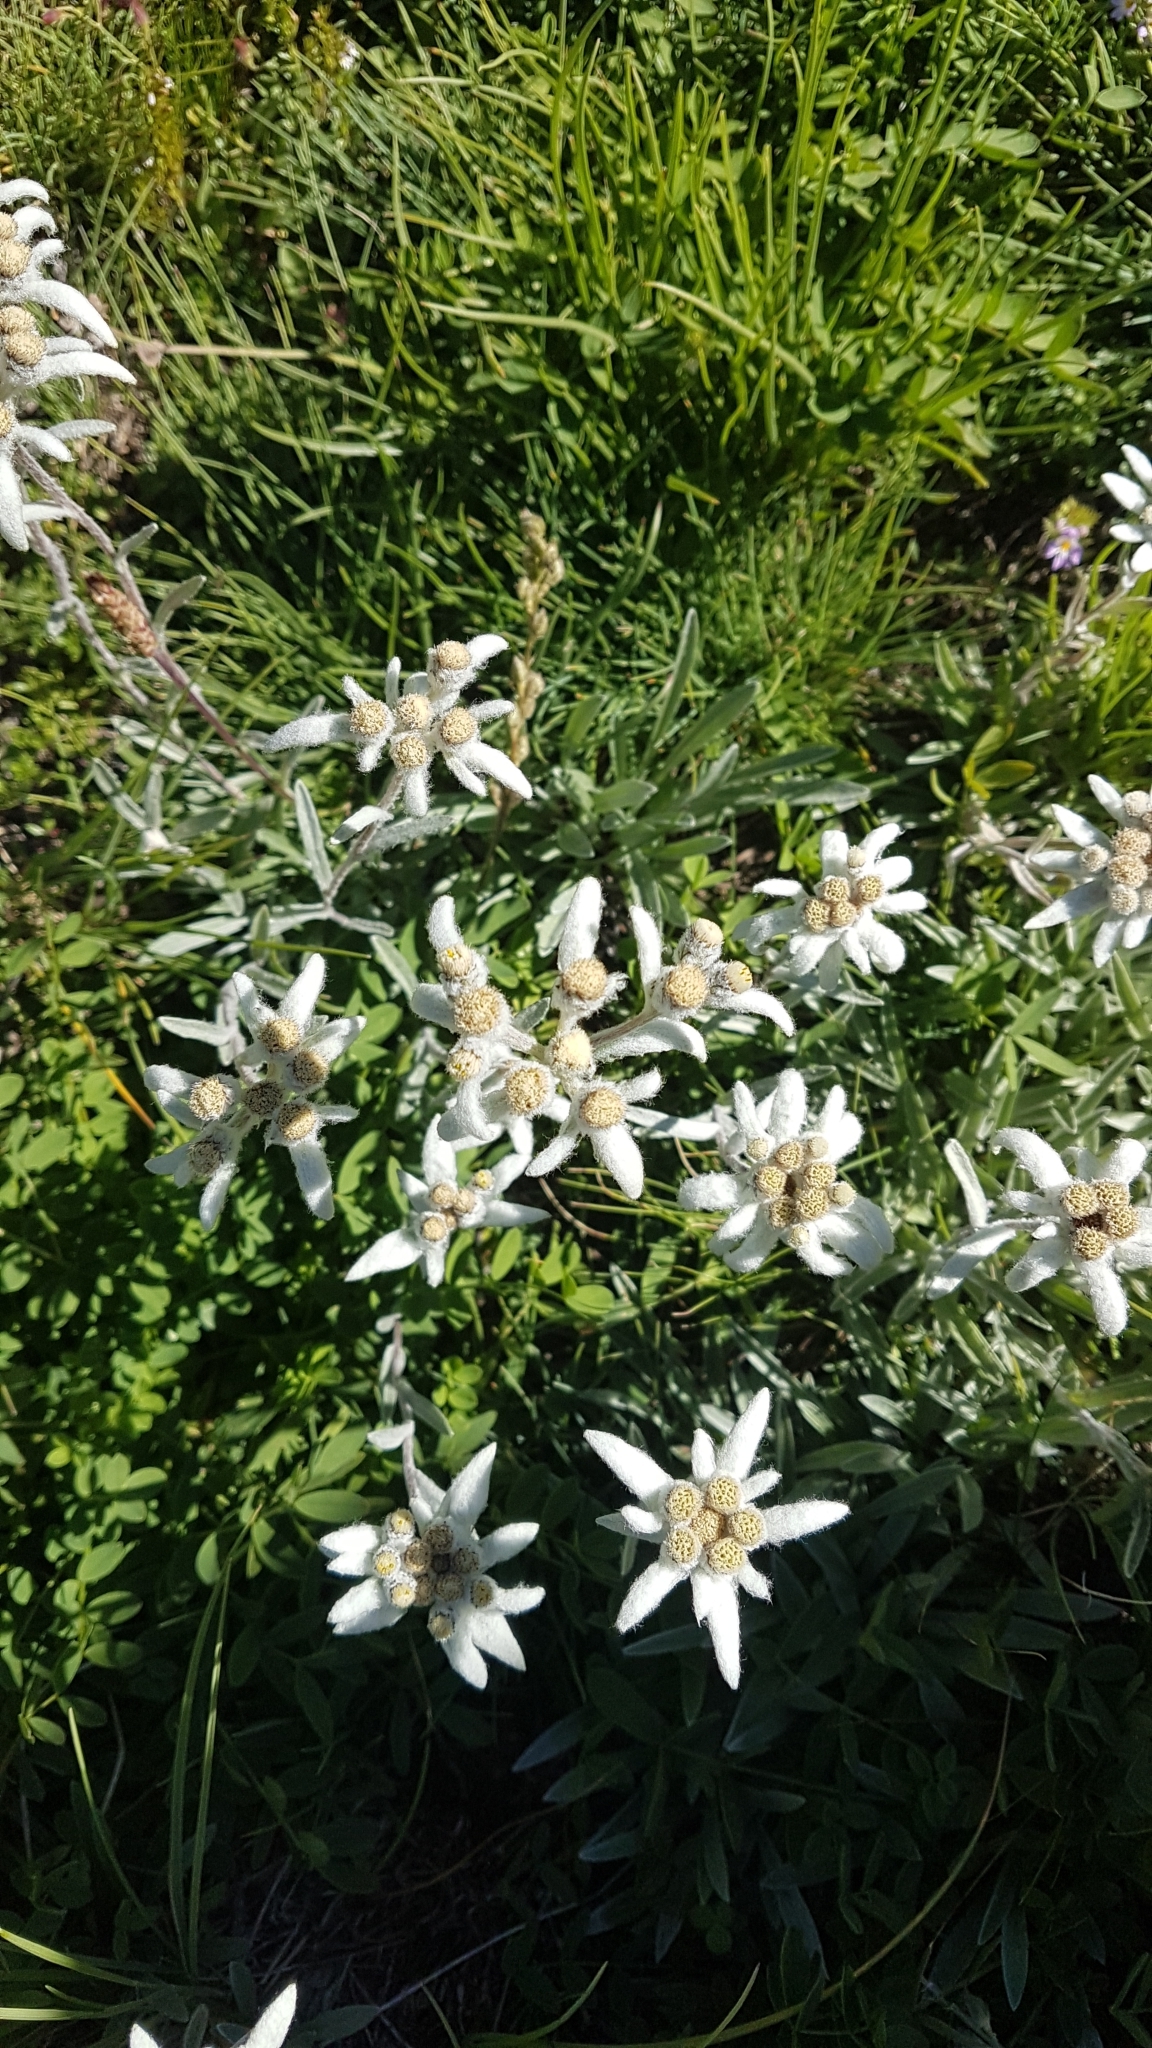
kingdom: Plantae
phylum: Tracheophyta
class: Magnoliopsida
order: Asterales
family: Asteraceae
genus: Leontopodium
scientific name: Leontopodium nivale
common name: Edelweiss
